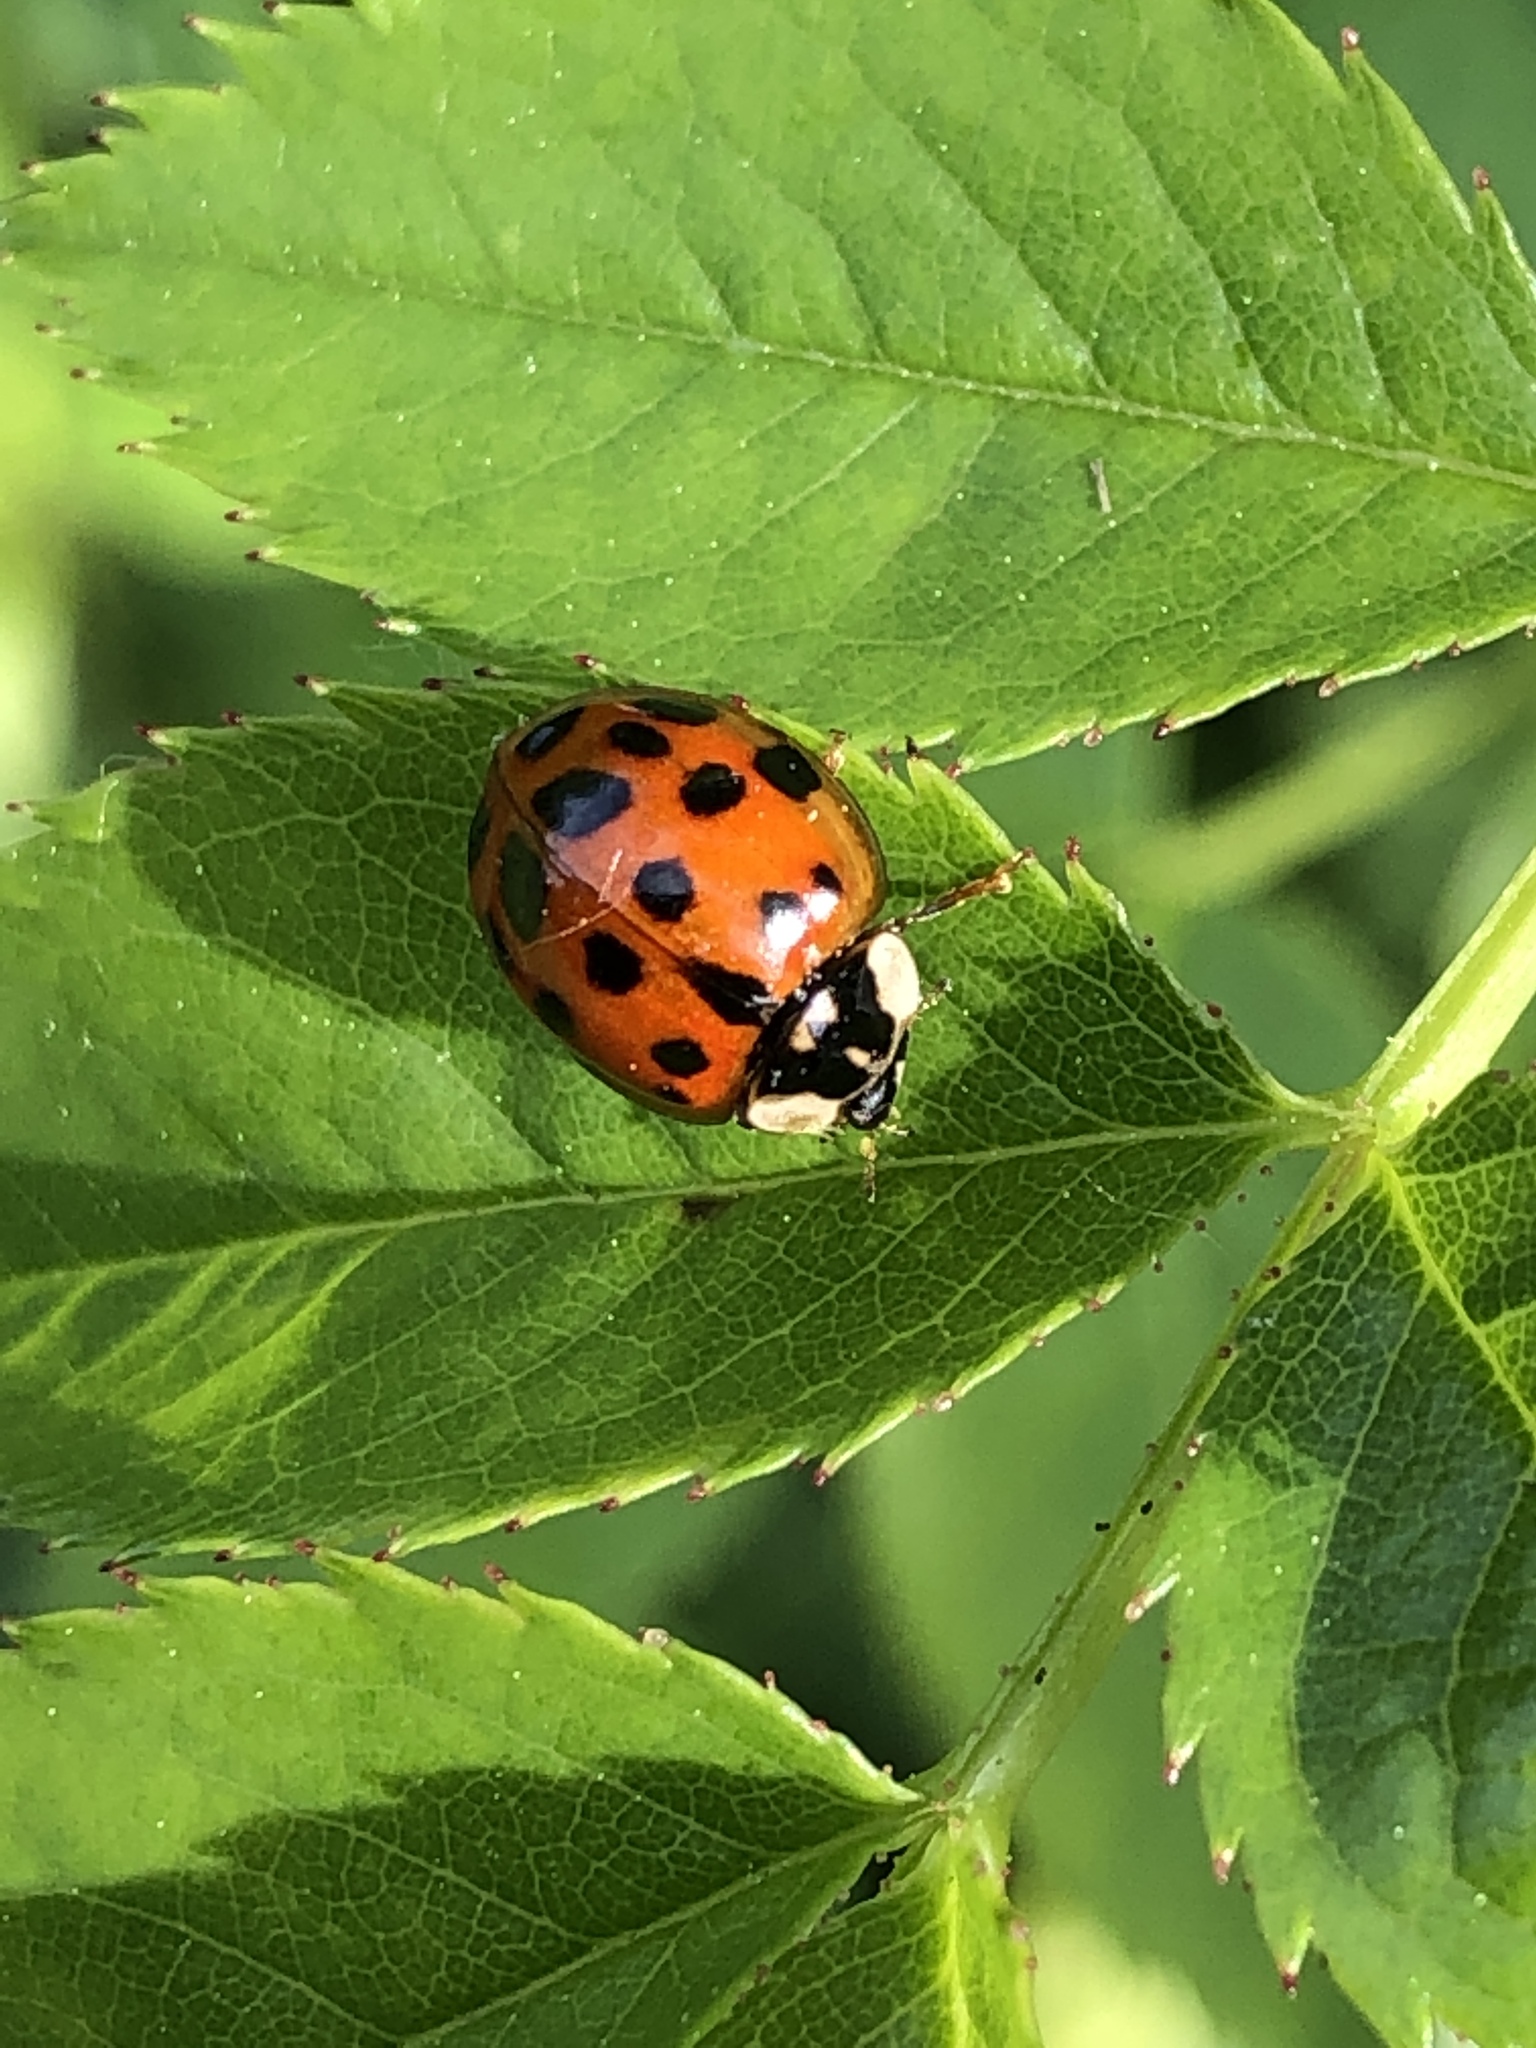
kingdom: Animalia
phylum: Arthropoda
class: Insecta
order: Coleoptera
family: Coccinellidae
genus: Harmonia
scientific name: Harmonia axyridis
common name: Harlequin ladybird
